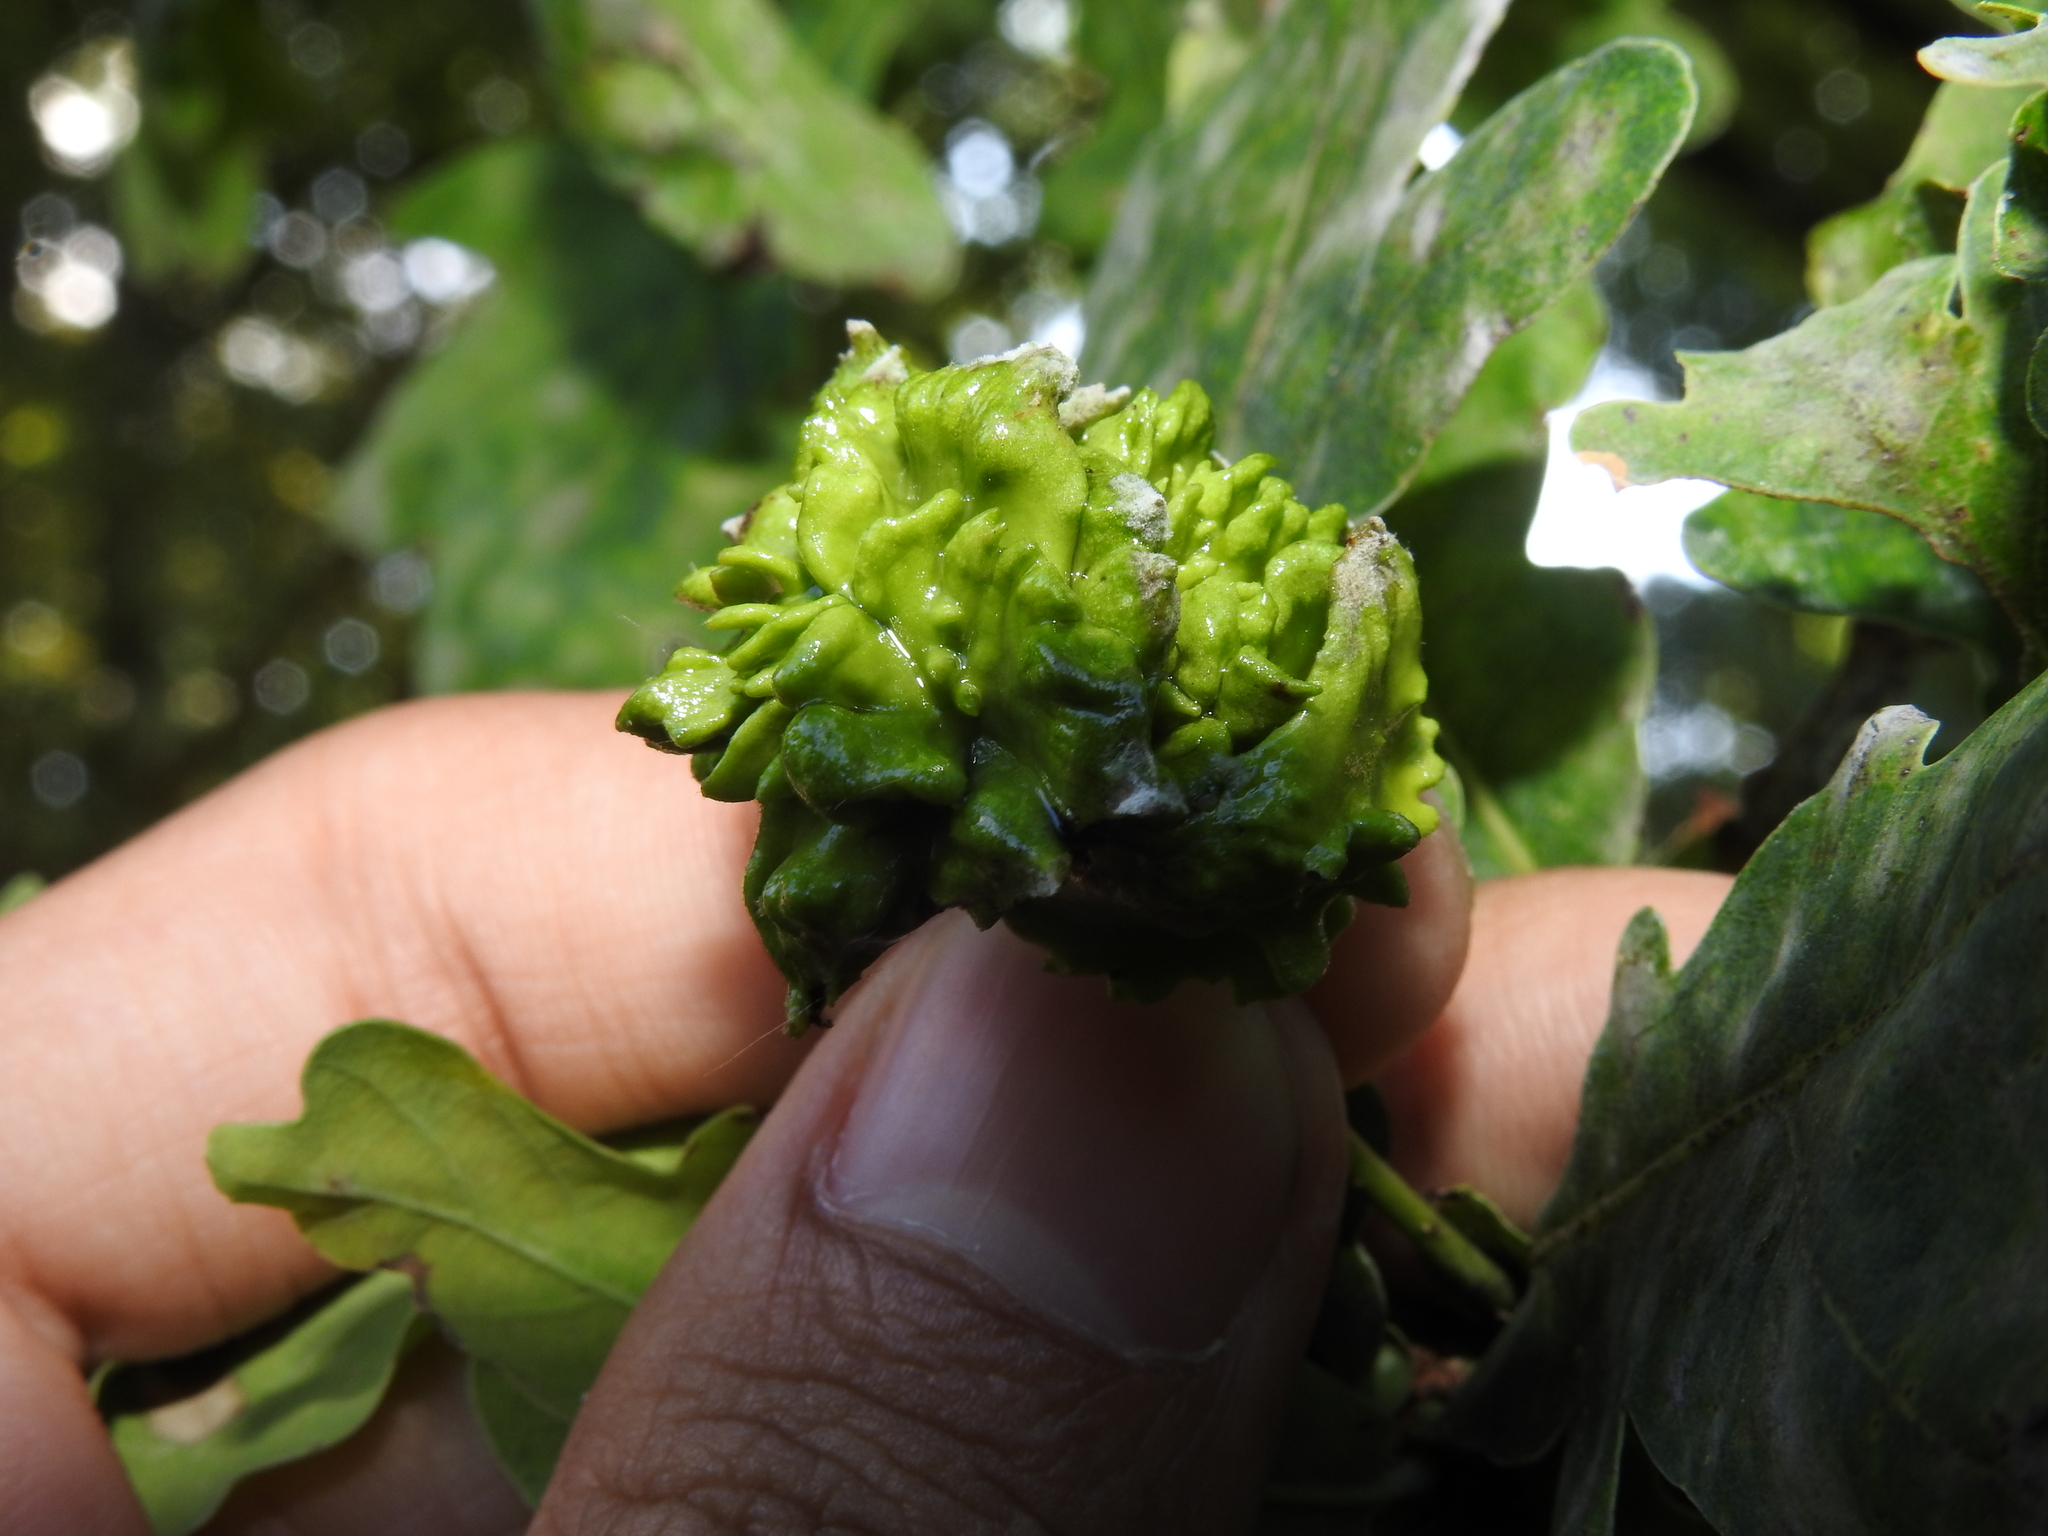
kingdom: Animalia
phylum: Arthropoda
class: Insecta
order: Hymenoptera
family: Cynipidae
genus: Andricus
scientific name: Andricus quercuscalicis
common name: Knopper gall
